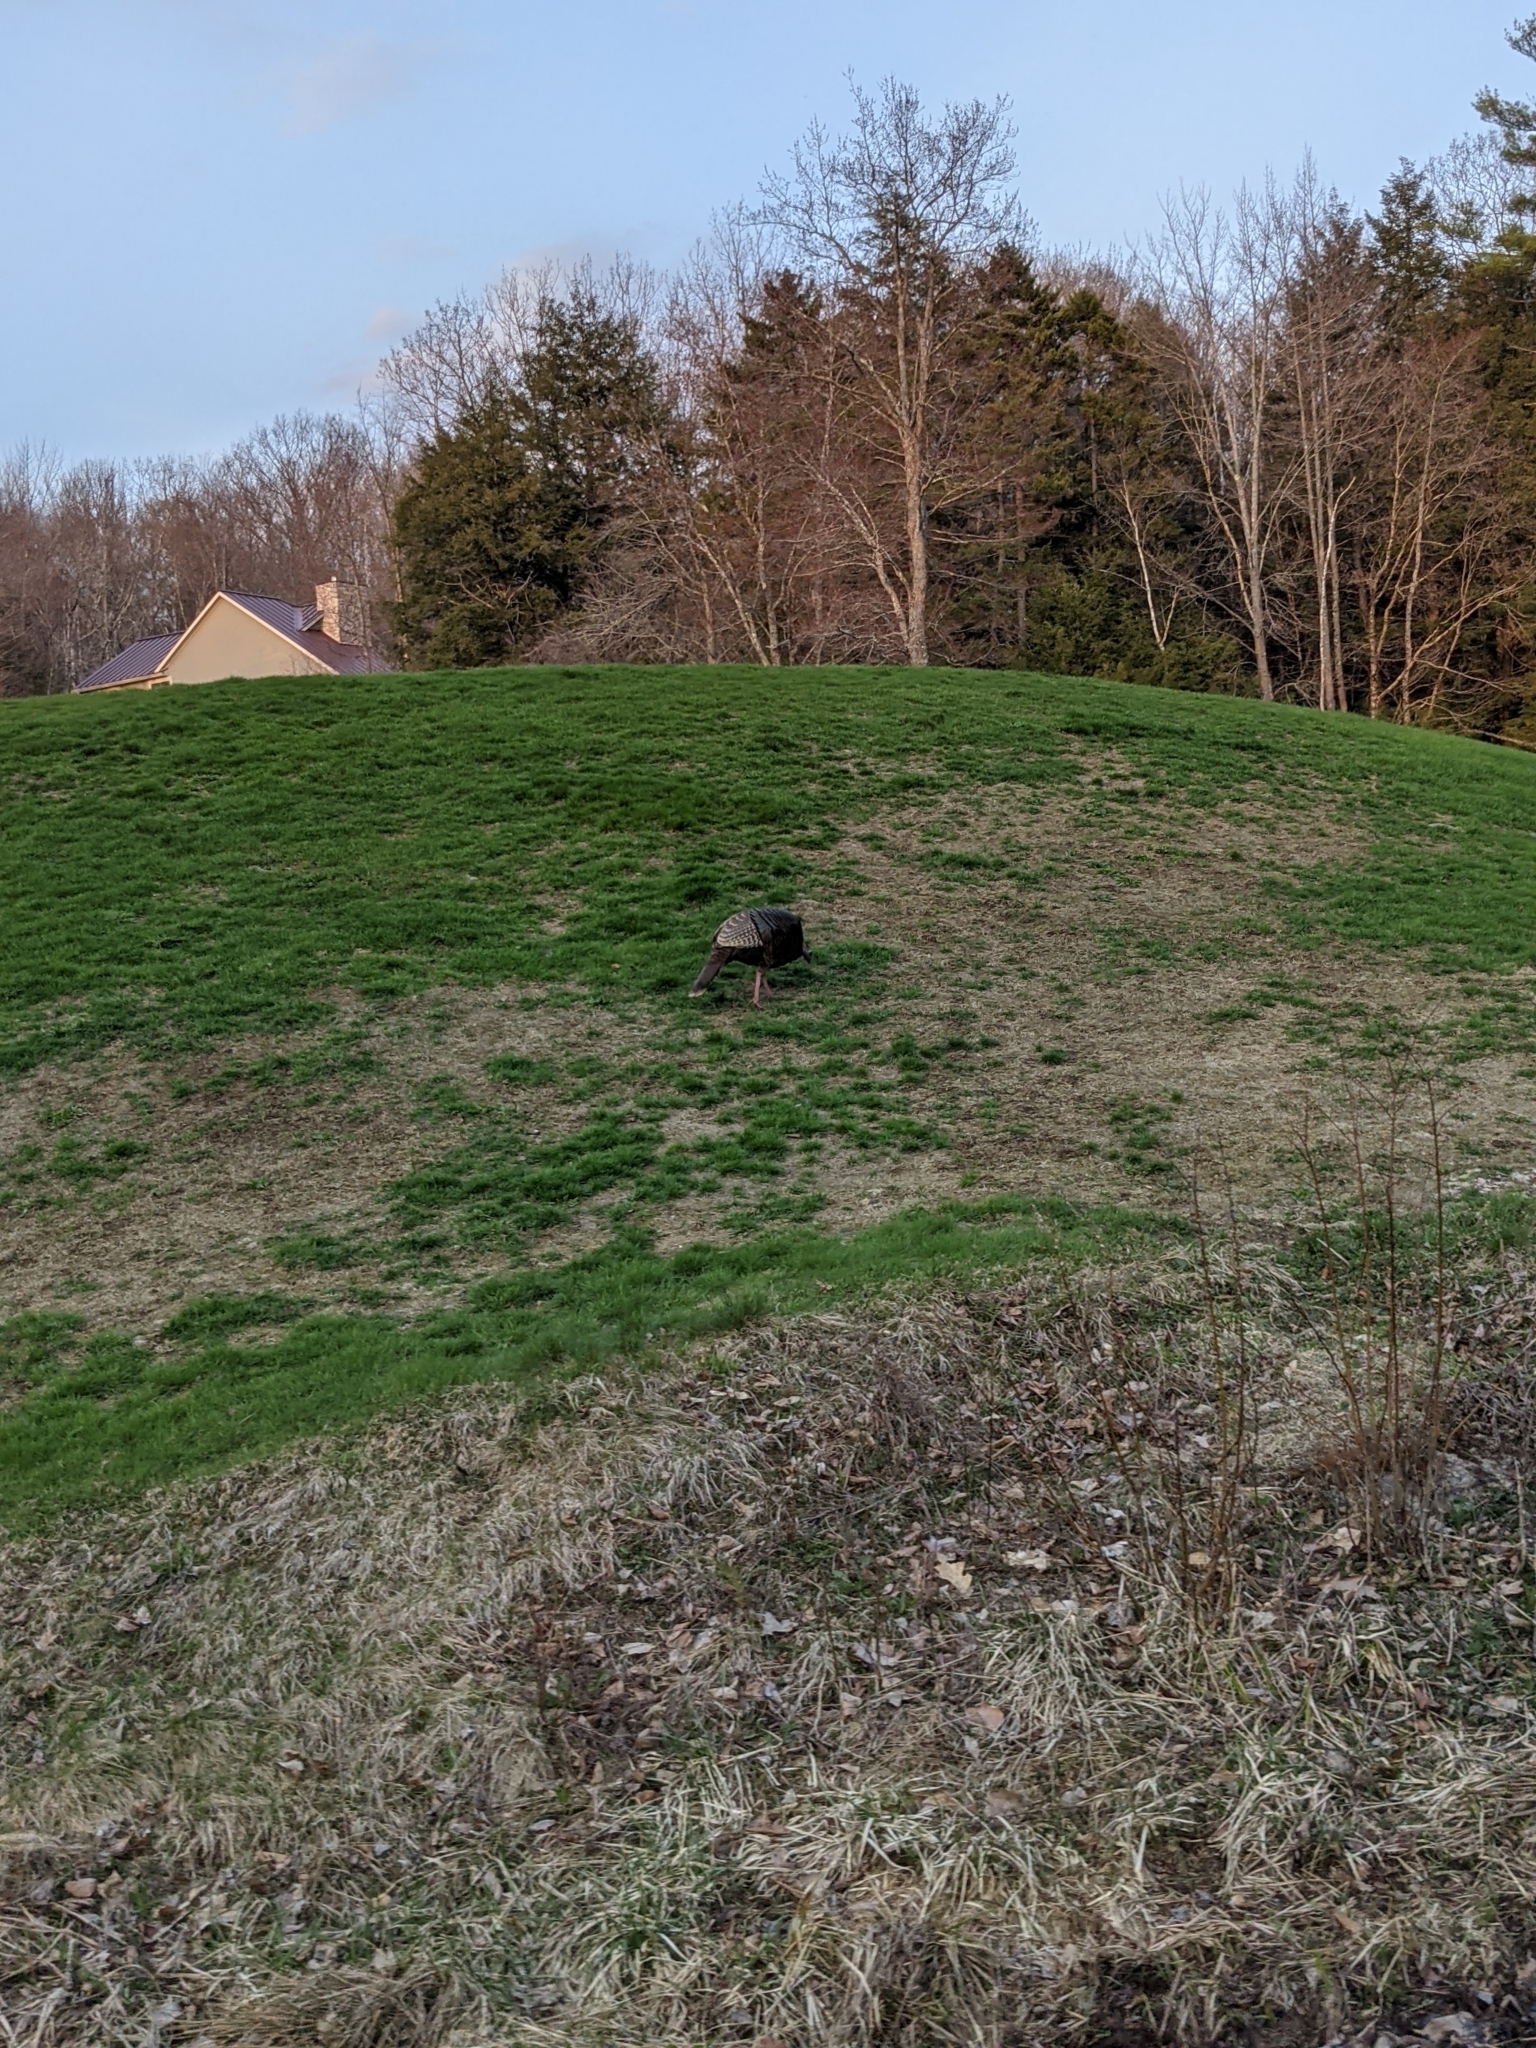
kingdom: Animalia
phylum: Chordata
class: Aves
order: Galliformes
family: Phasianidae
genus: Meleagris
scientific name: Meleagris gallopavo
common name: Wild turkey
